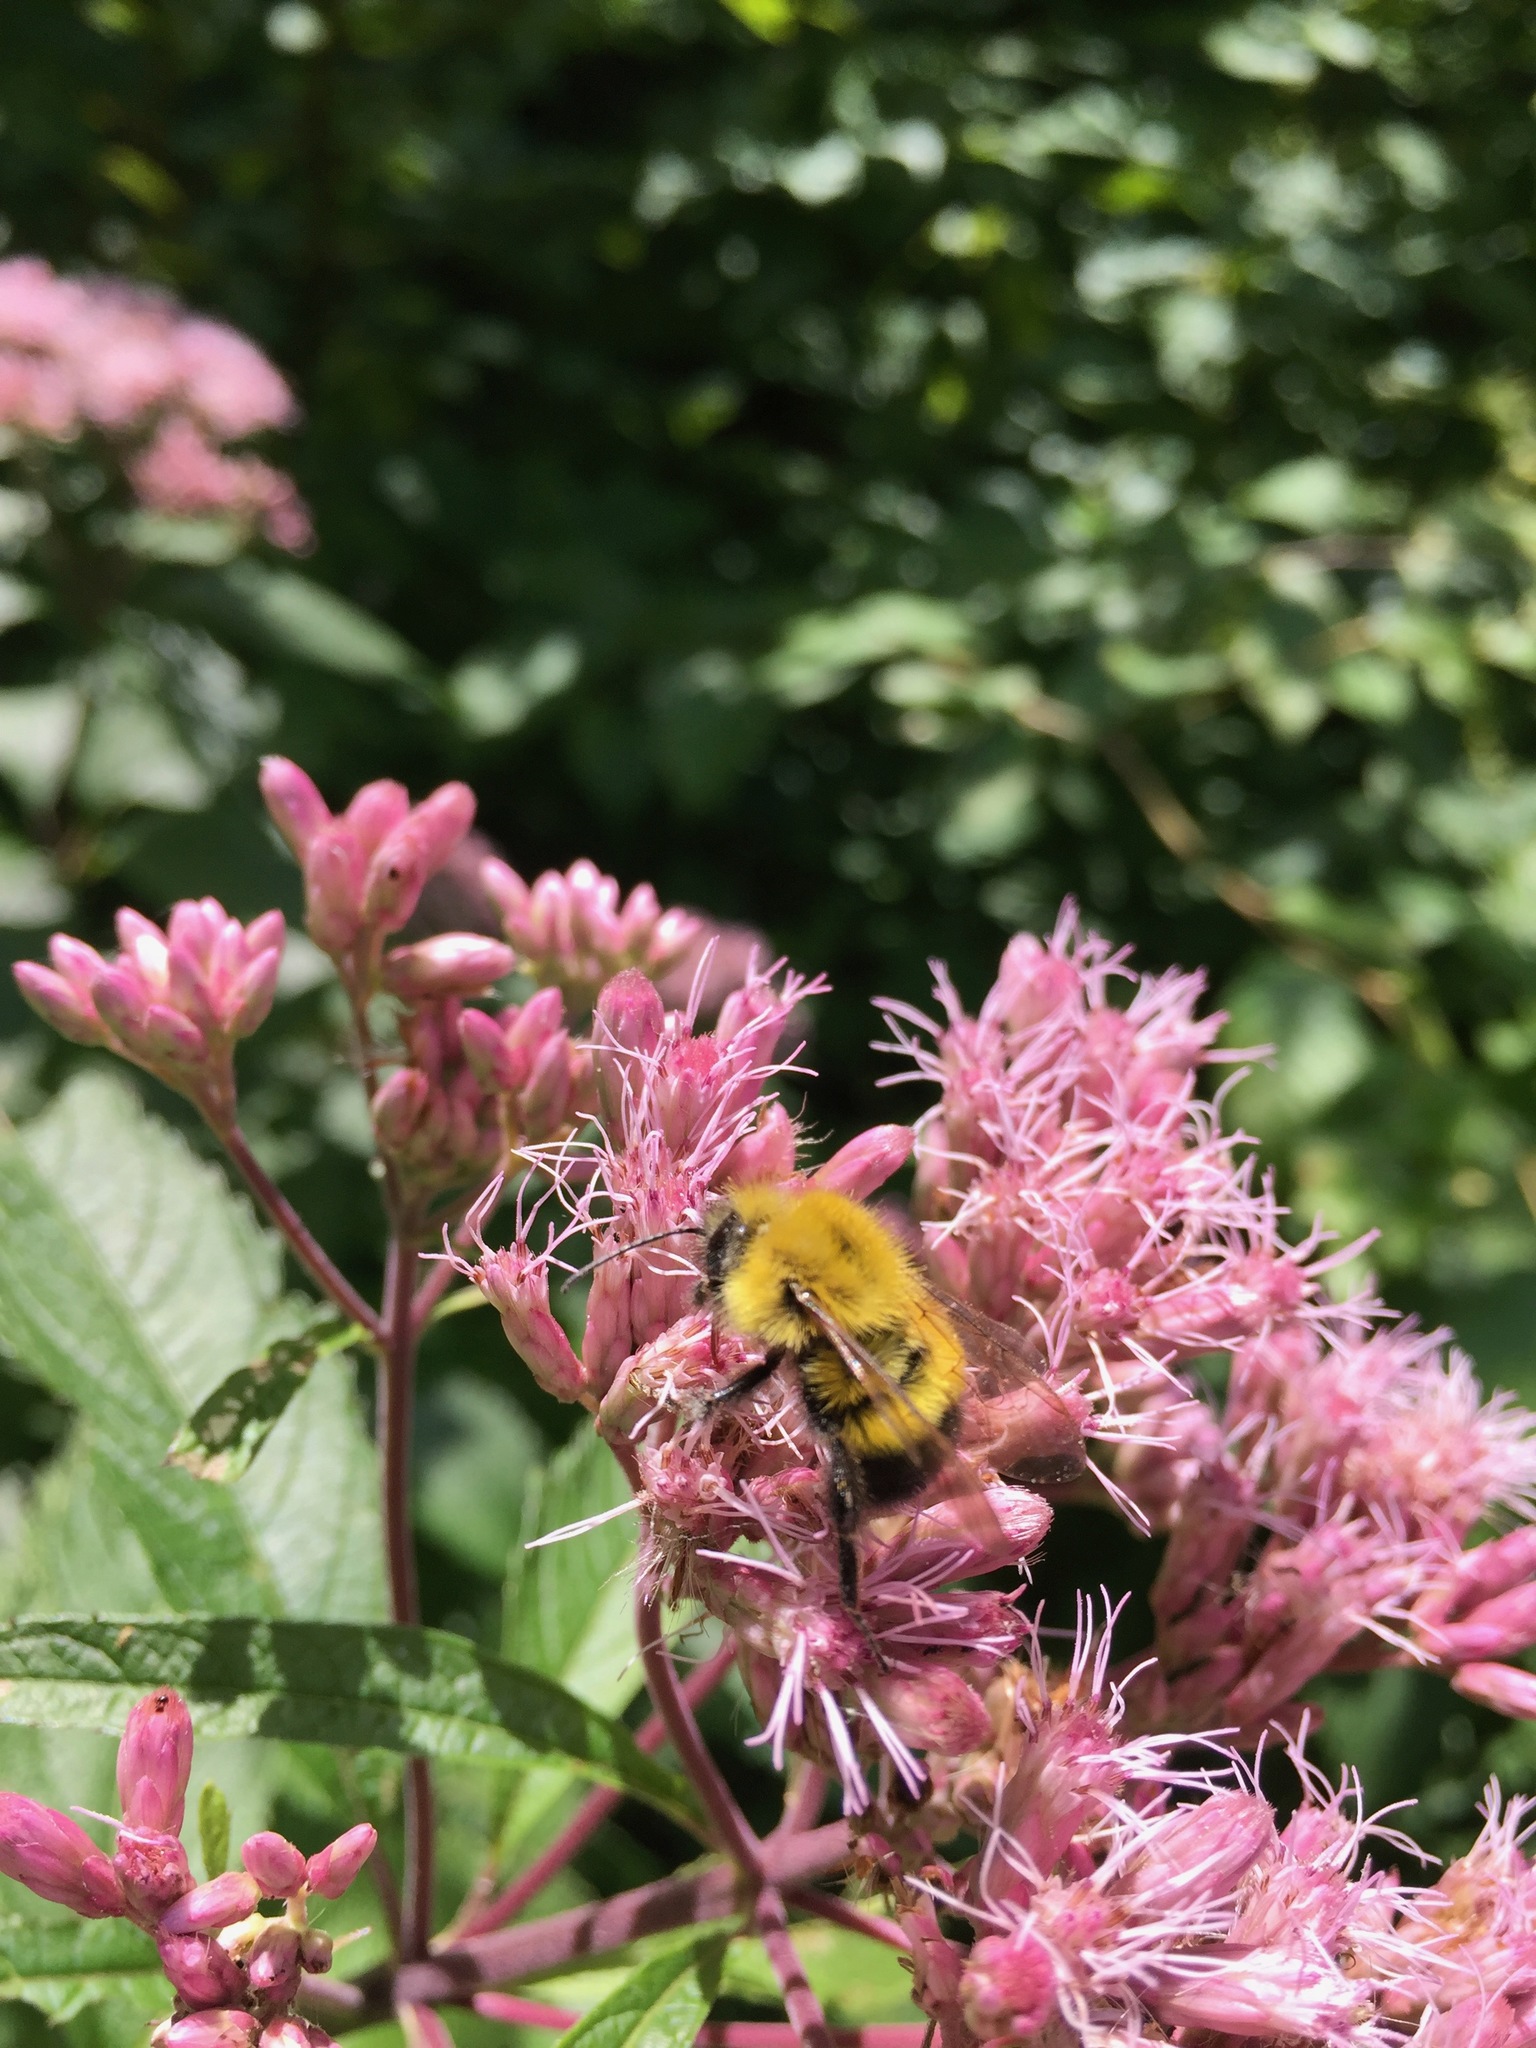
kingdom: Animalia
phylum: Arthropoda
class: Insecta
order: Hymenoptera
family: Apidae
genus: Bombus
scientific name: Bombus perplexus
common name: Confusing bumble bee
